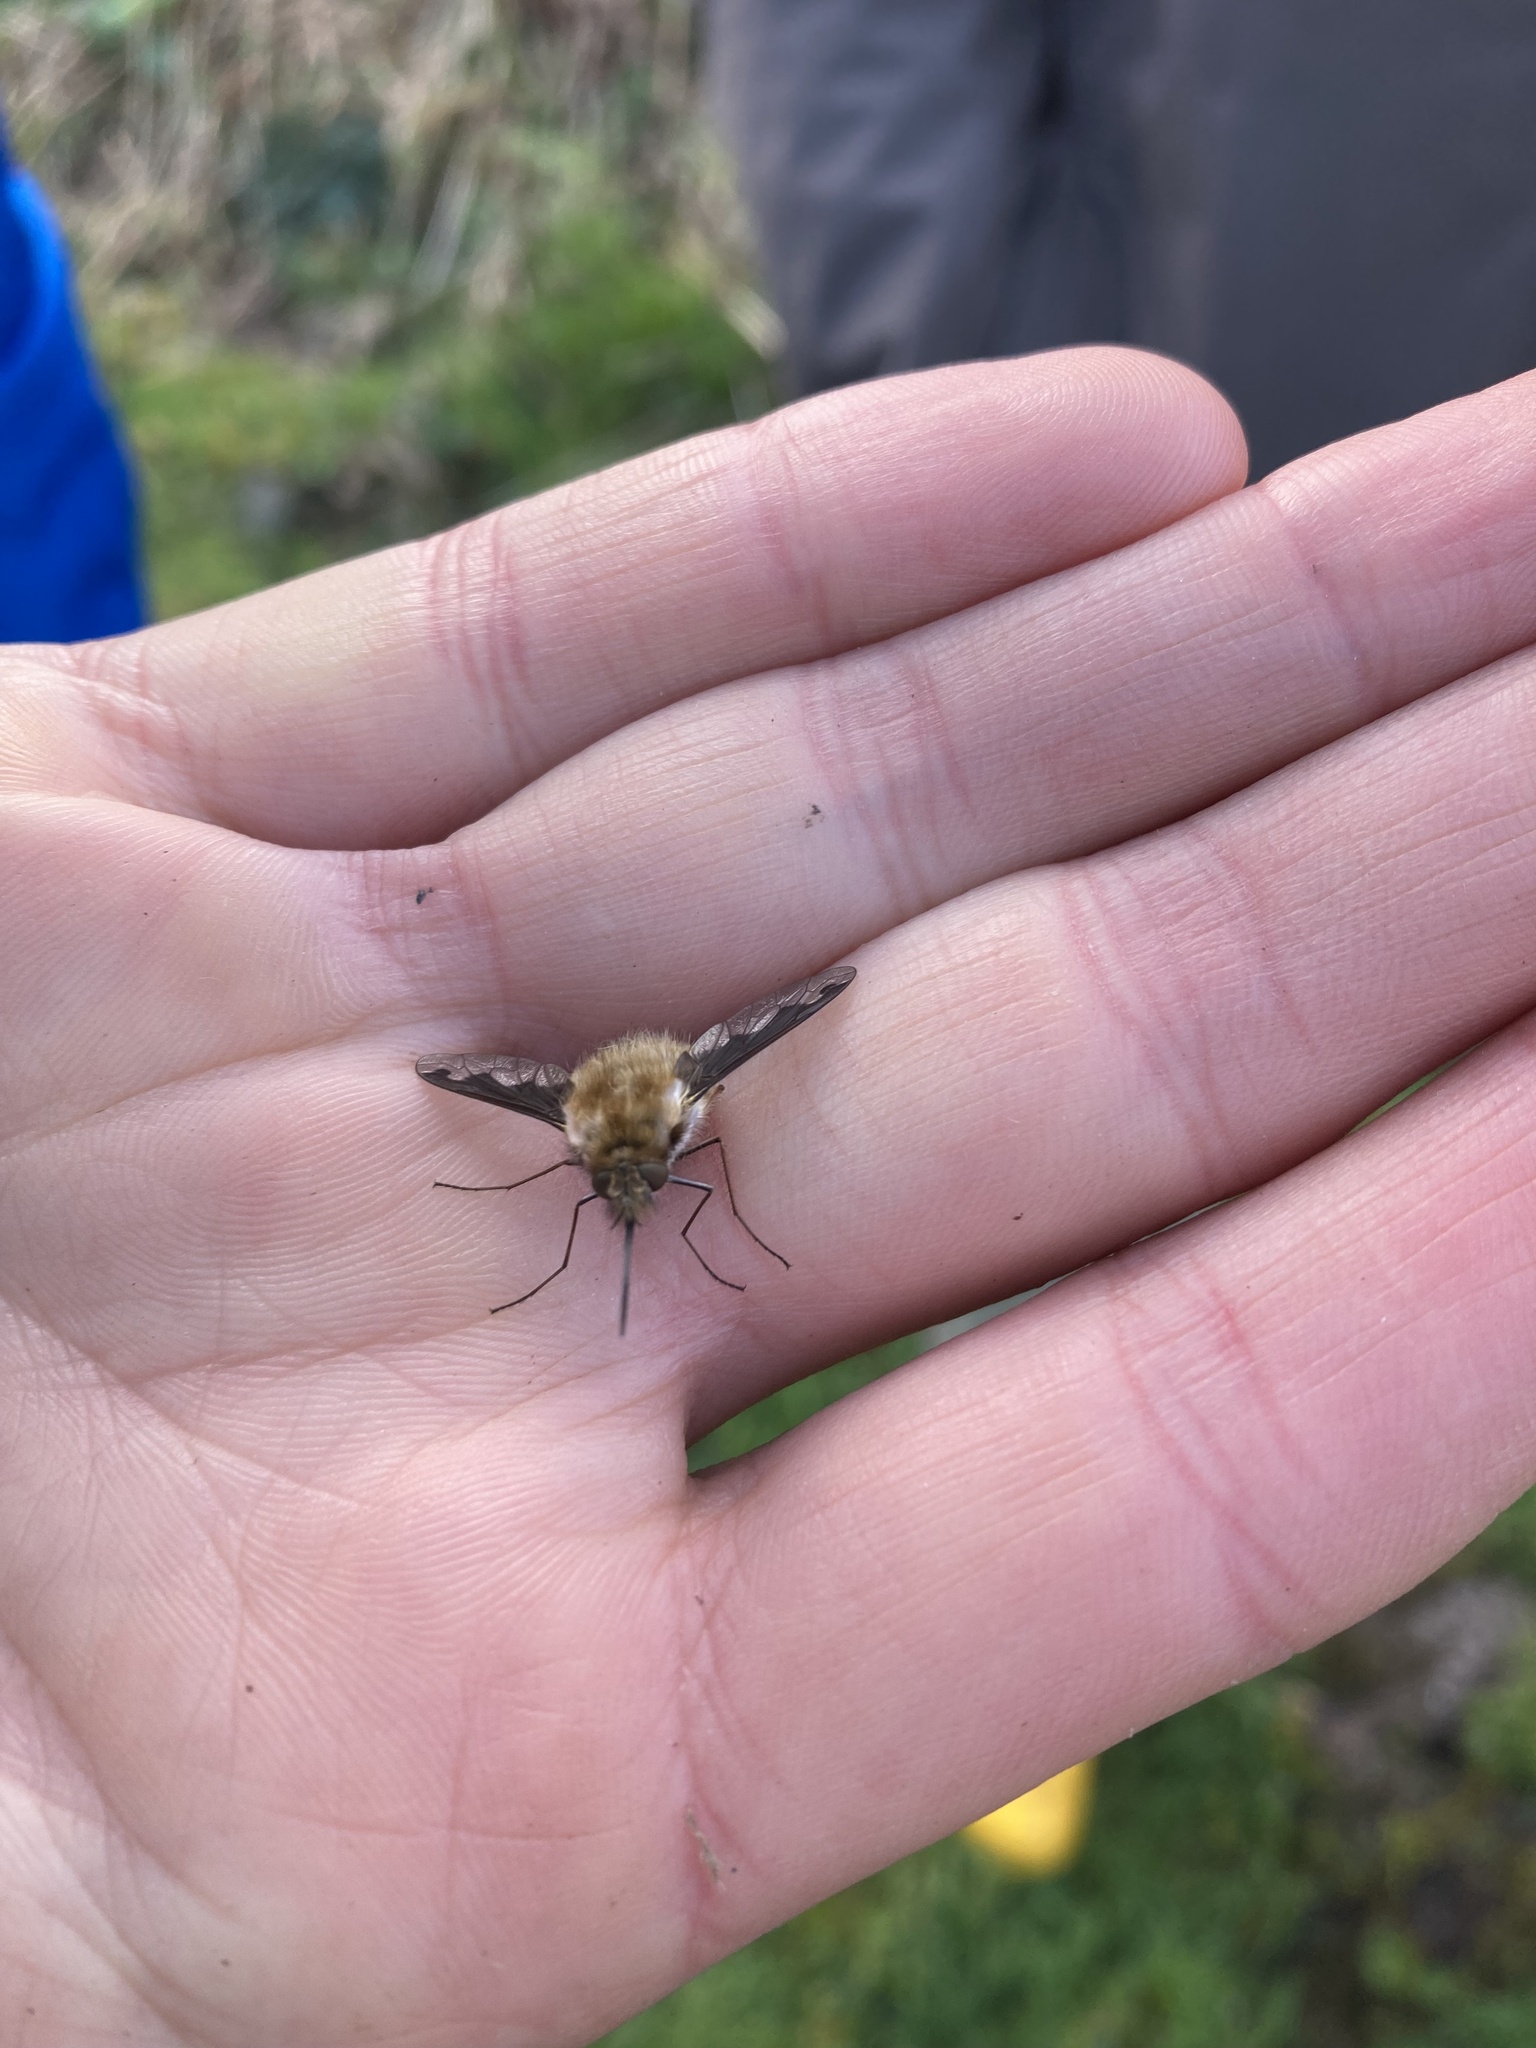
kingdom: Animalia
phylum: Arthropoda
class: Insecta
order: Diptera
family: Bombyliidae
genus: Bombylius
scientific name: Bombylius major
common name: Bee fly
